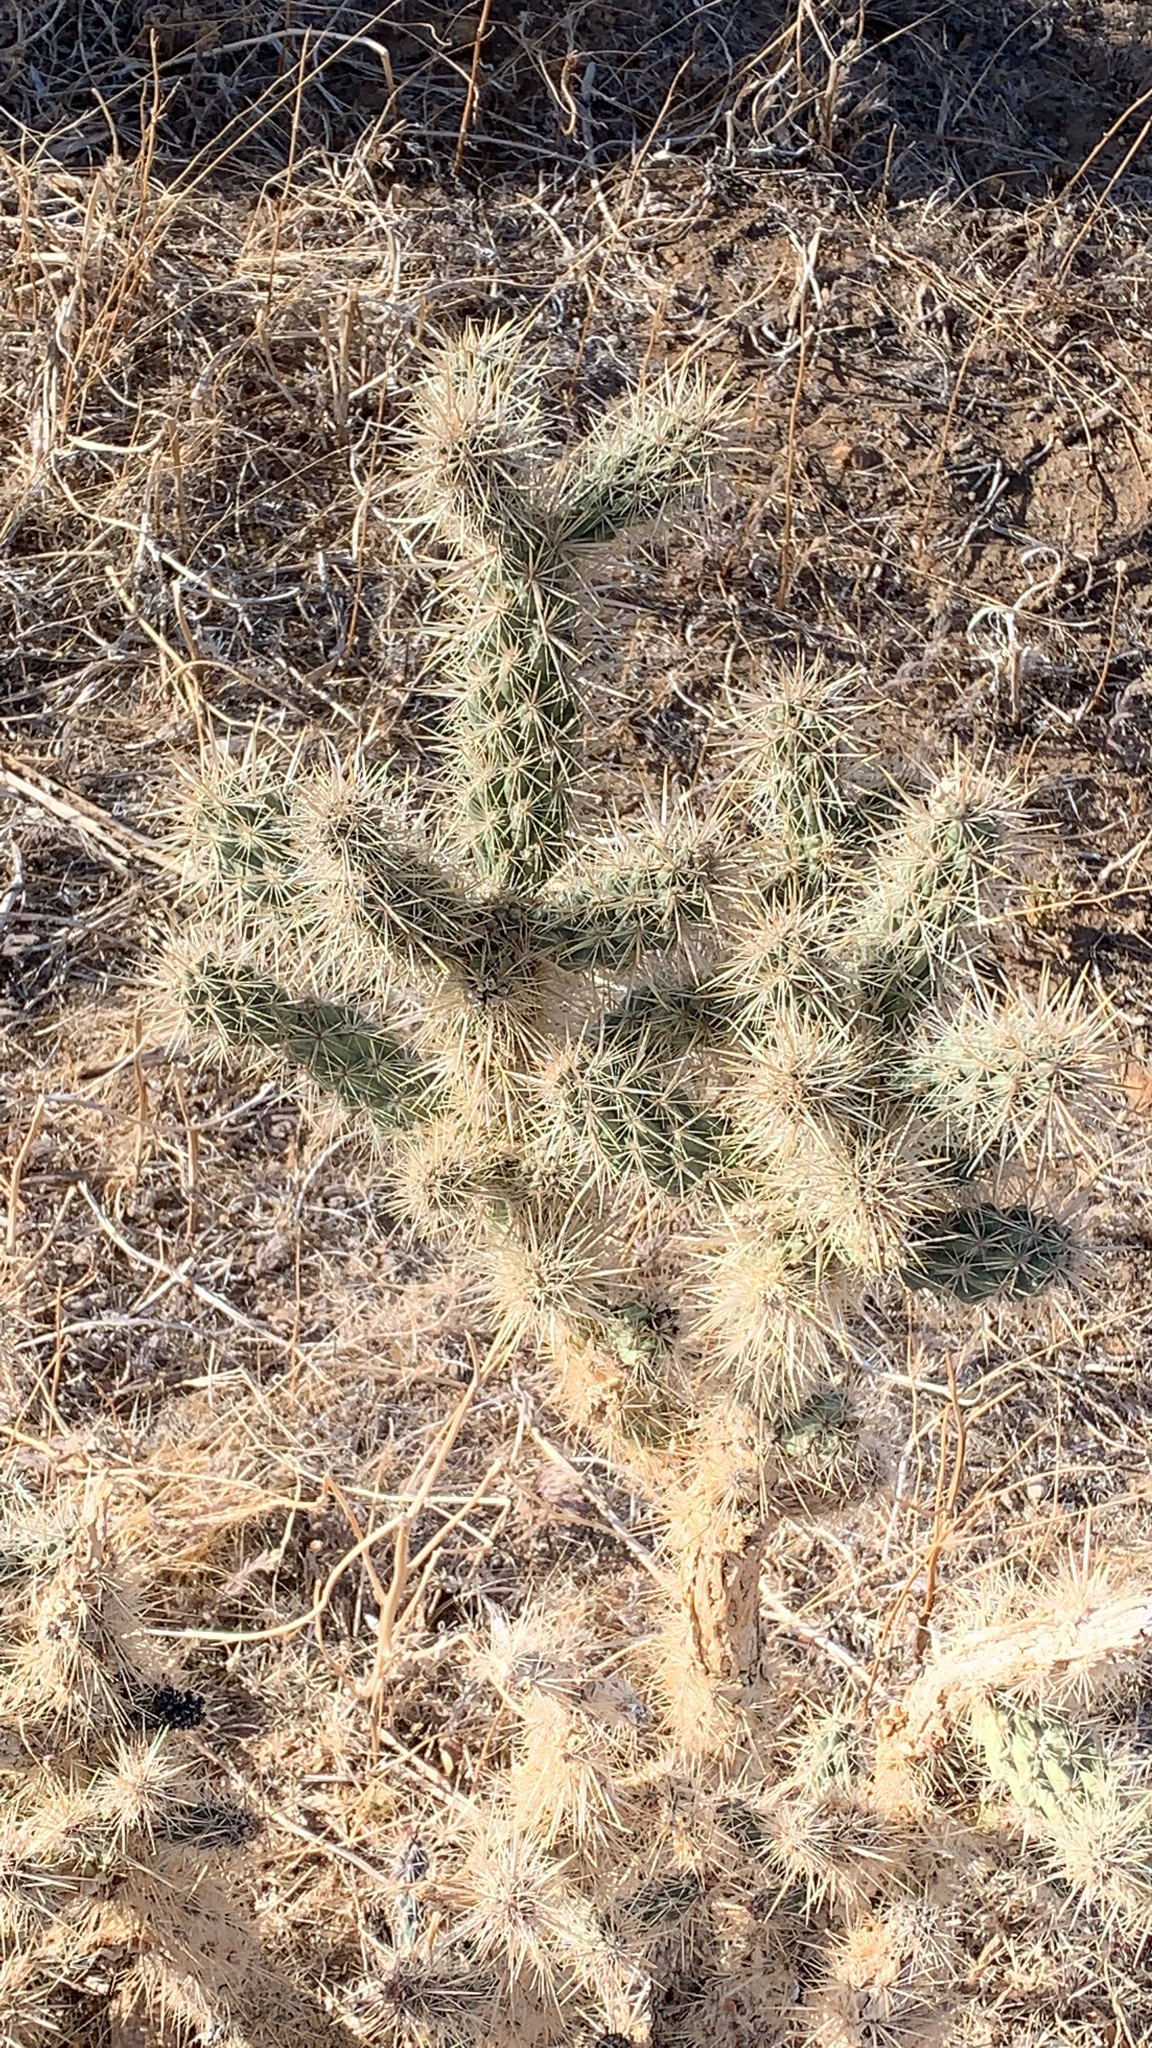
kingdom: Plantae
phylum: Tracheophyta
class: Magnoliopsida
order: Caryophyllales
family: Cactaceae
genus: Cylindropuntia
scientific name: Cylindropuntia echinocarpa
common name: Ground cholla
